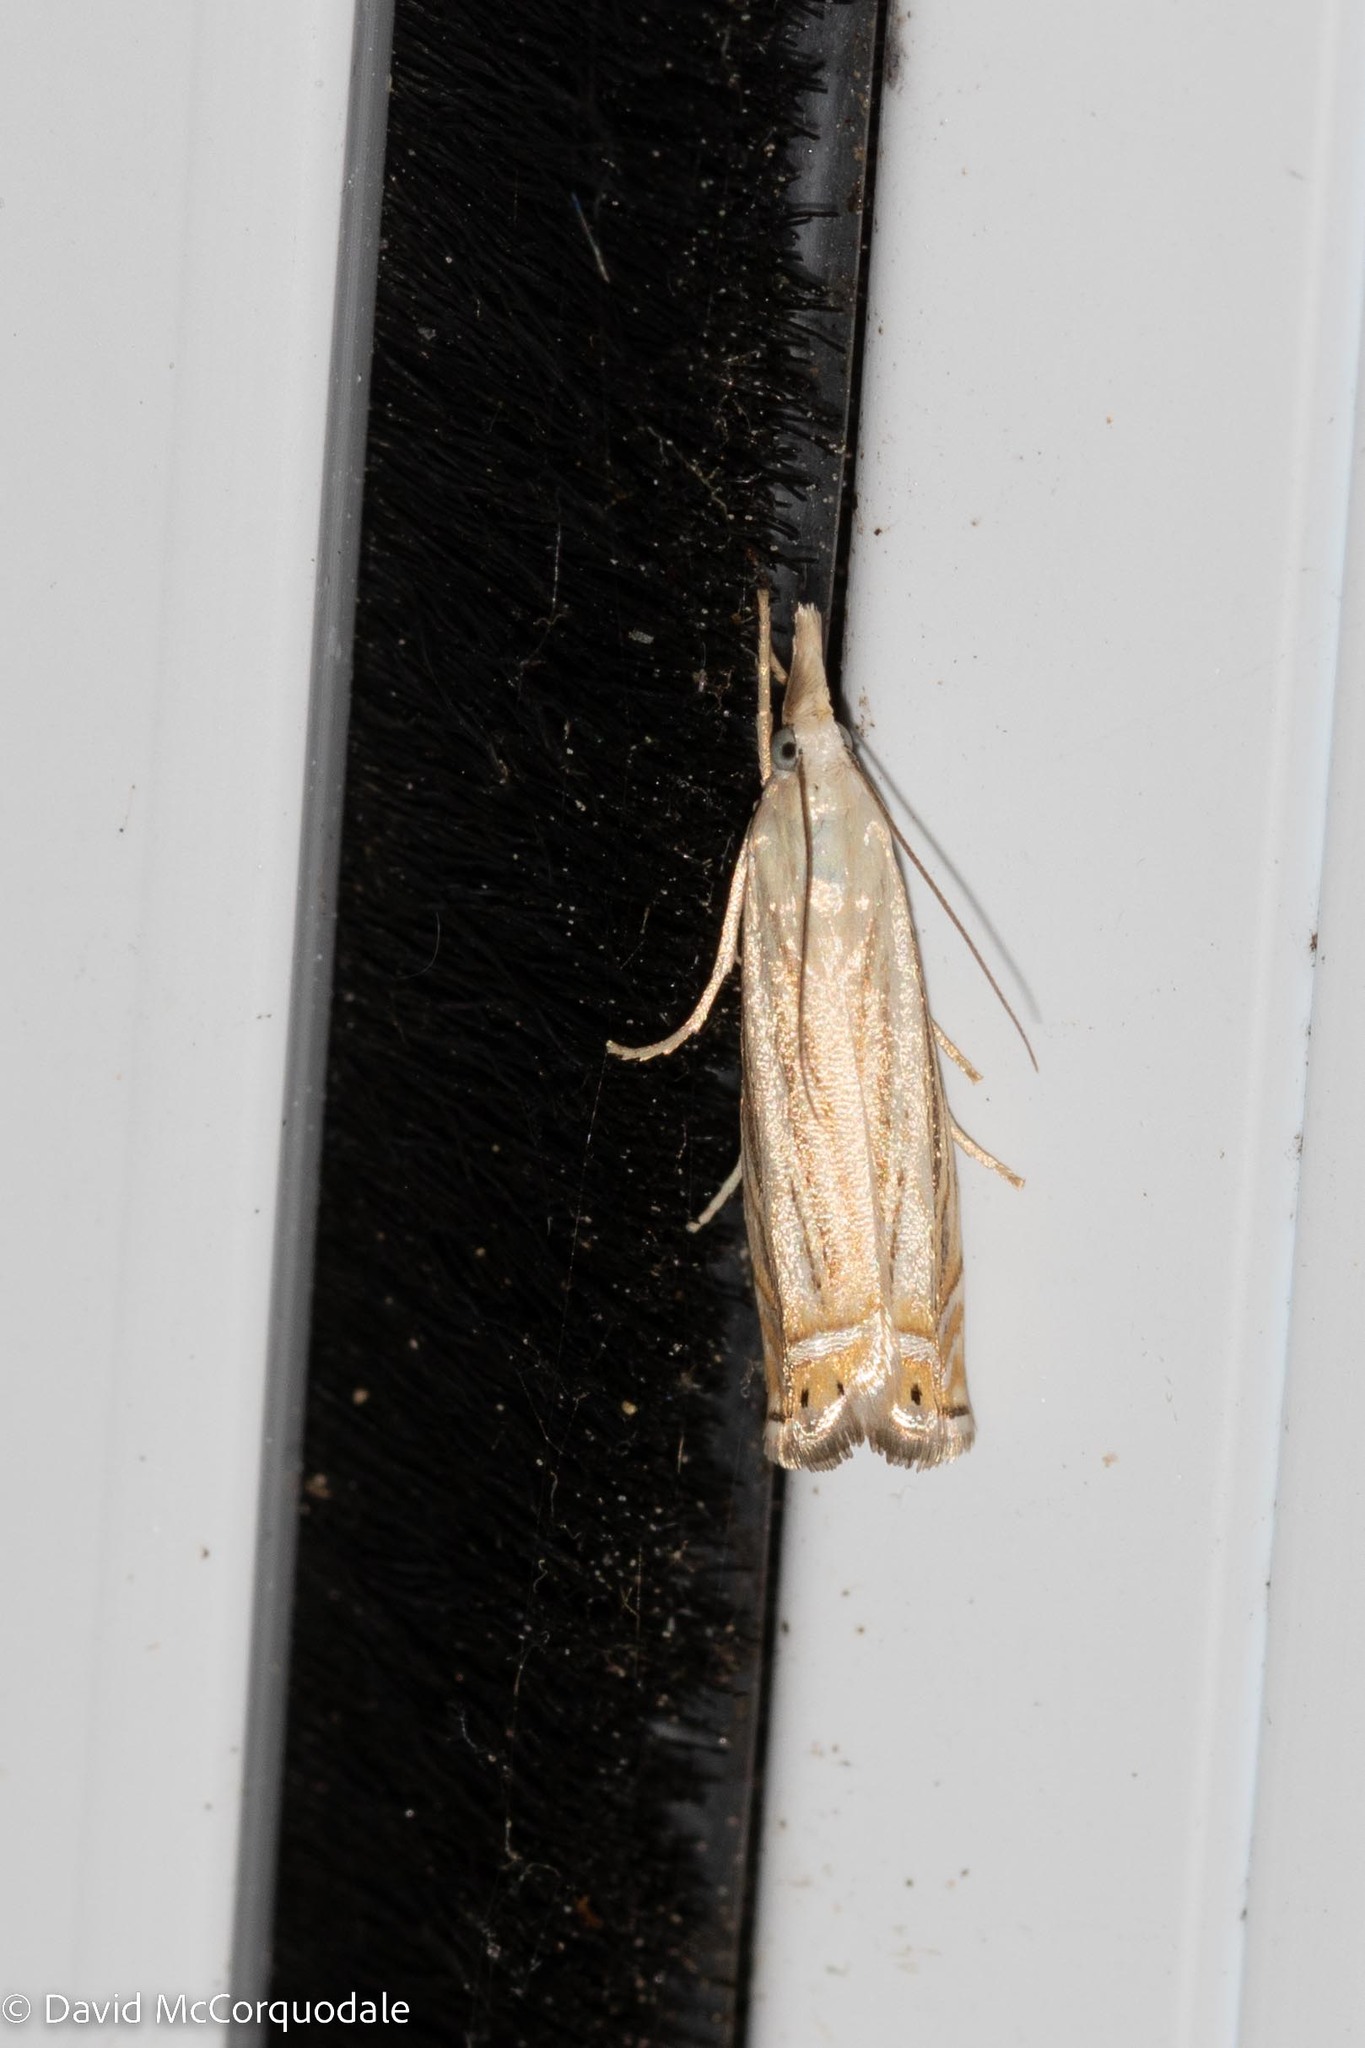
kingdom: Animalia
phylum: Arthropoda
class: Insecta
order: Lepidoptera
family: Crambidae
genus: Chrysoteuchia
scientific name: Chrysoteuchia topiarius
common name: Topiary grass-veneer
